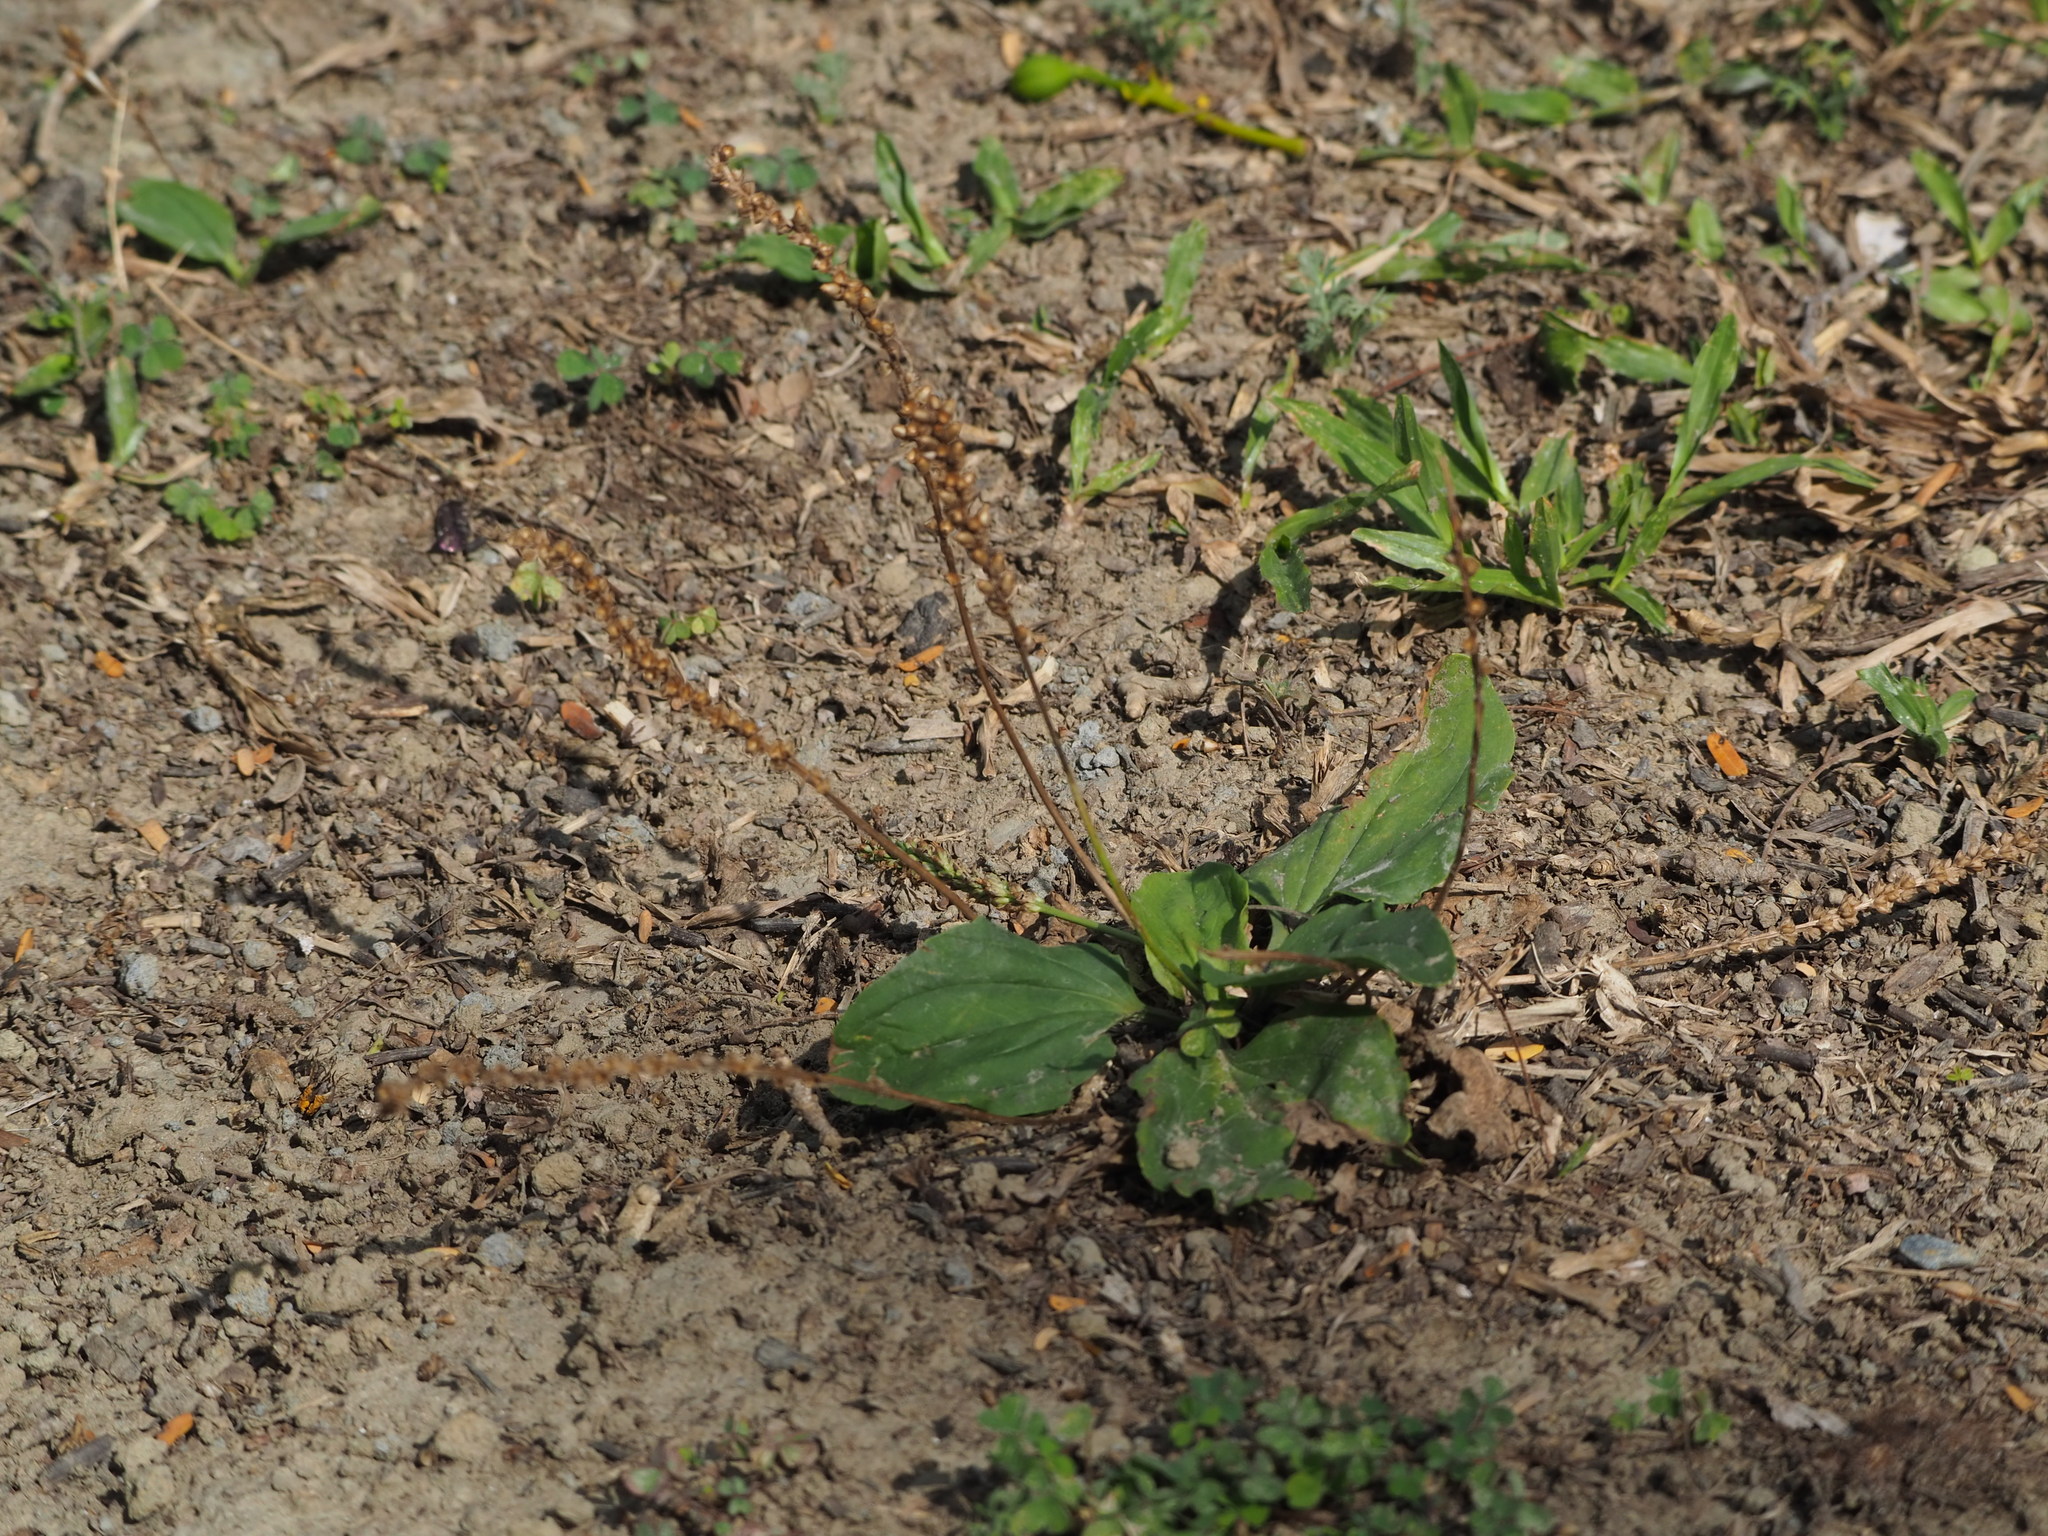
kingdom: Plantae
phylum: Tracheophyta
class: Magnoliopsida
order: Lamiales
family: Plantaginaceae
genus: Plantago
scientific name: Plantago asiatica
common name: Psyllium
